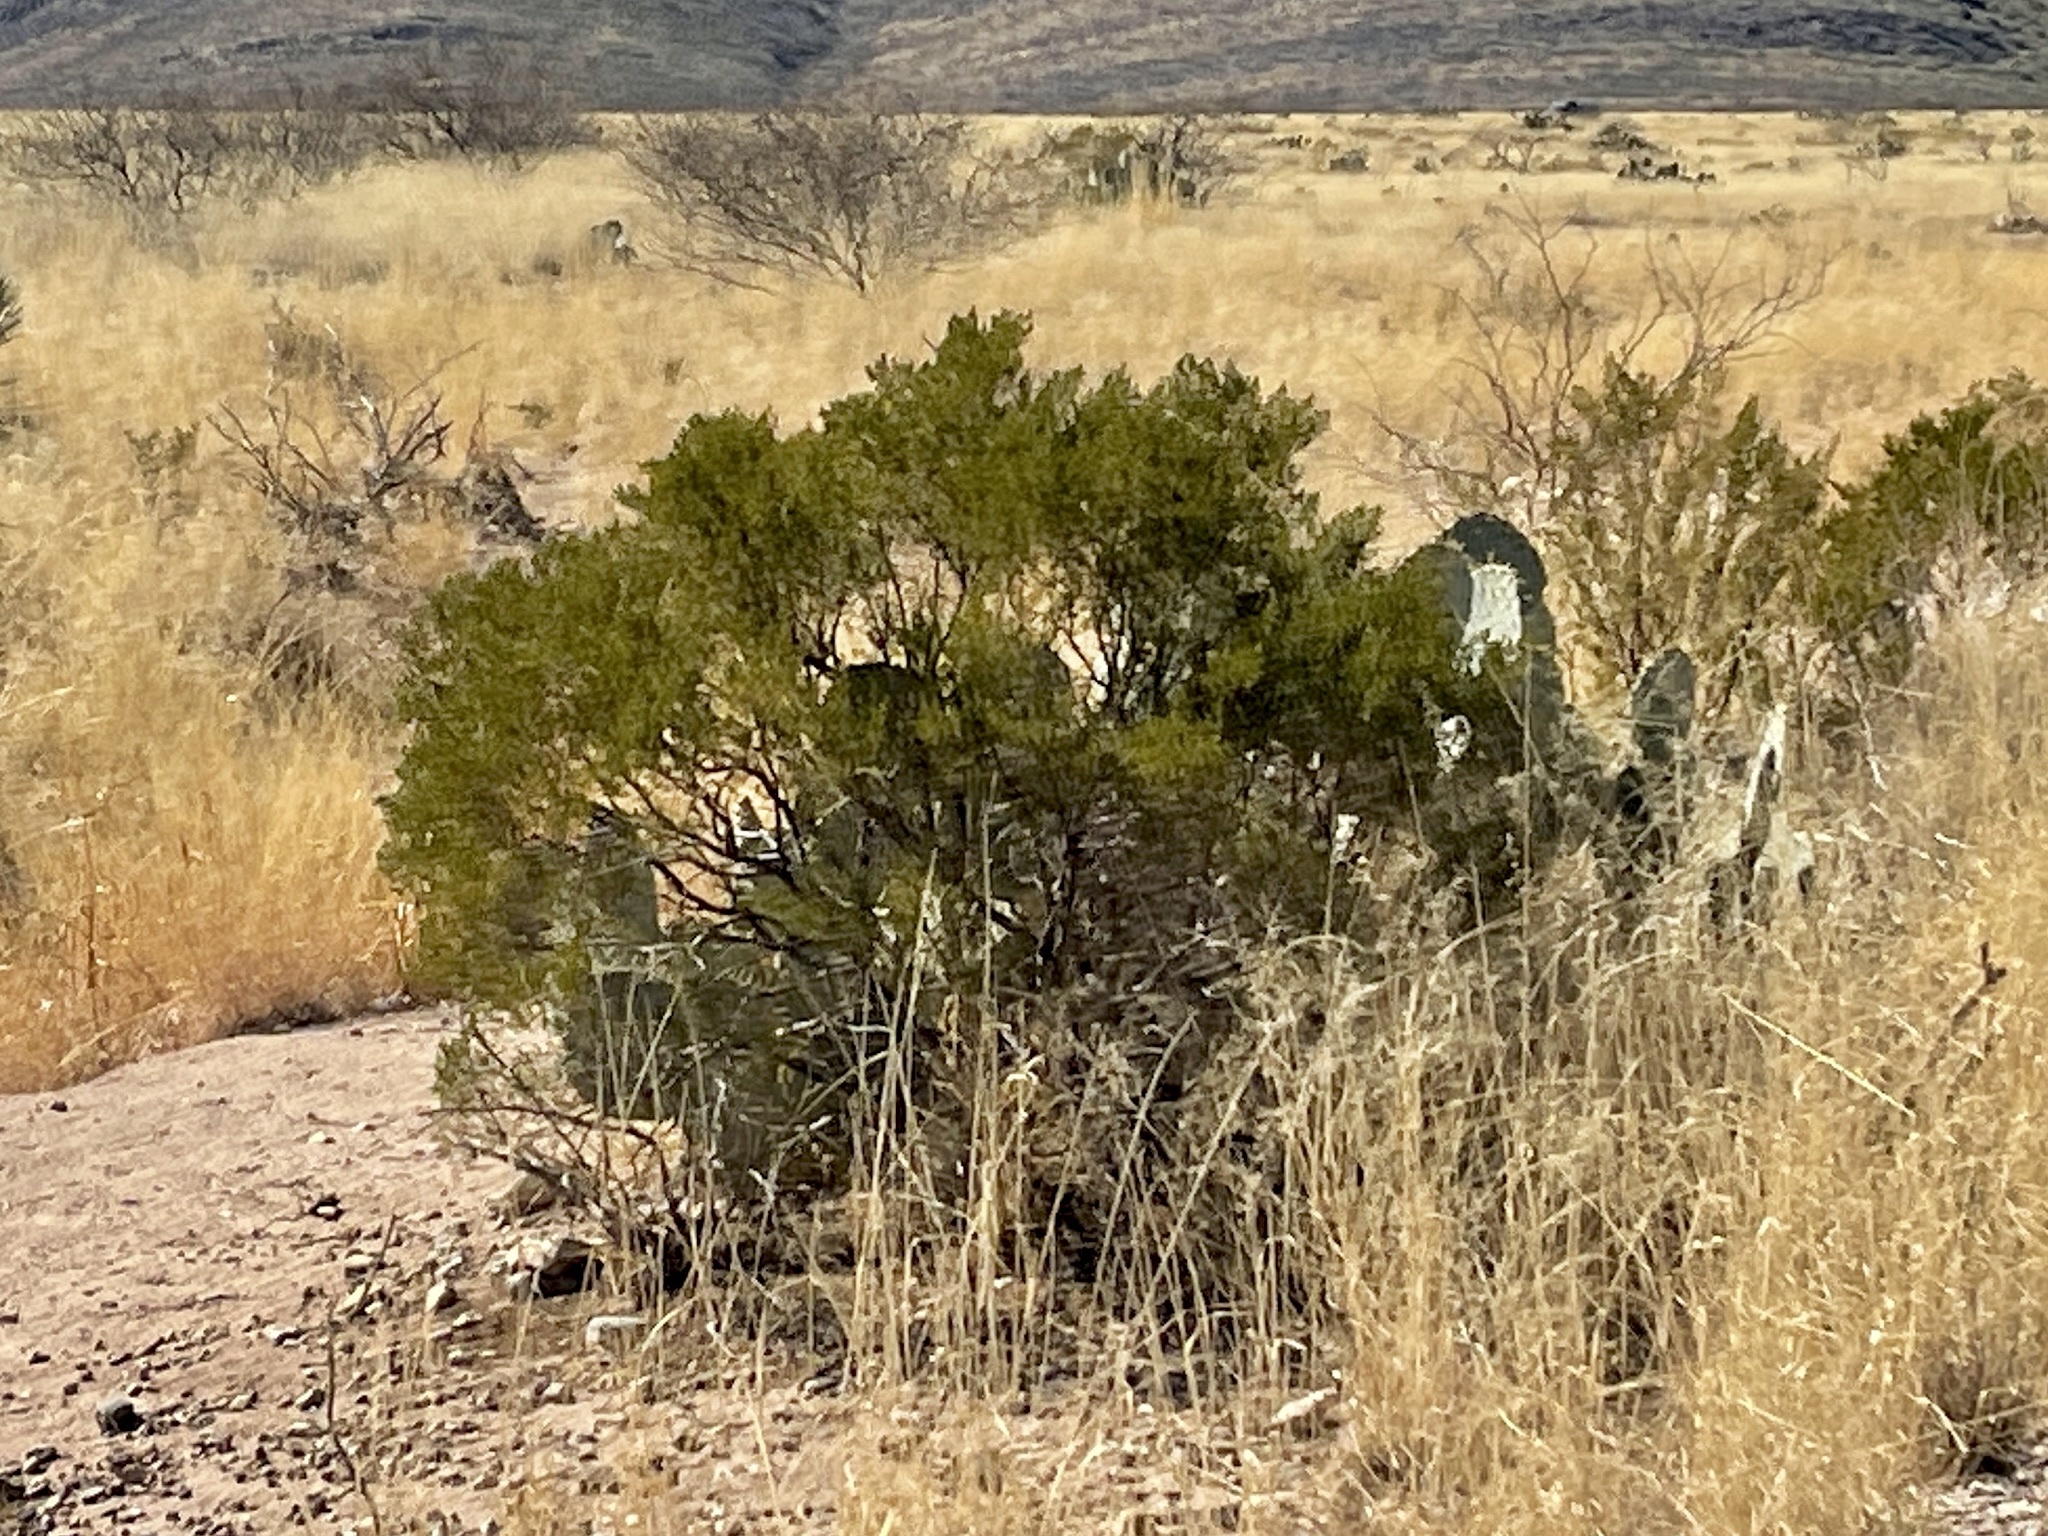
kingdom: Plantae
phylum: Tracheophyta
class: Magnoliopsida
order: Zygophyllales
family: Zygophyllaceae
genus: Larrea
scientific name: Larrea tridentata
